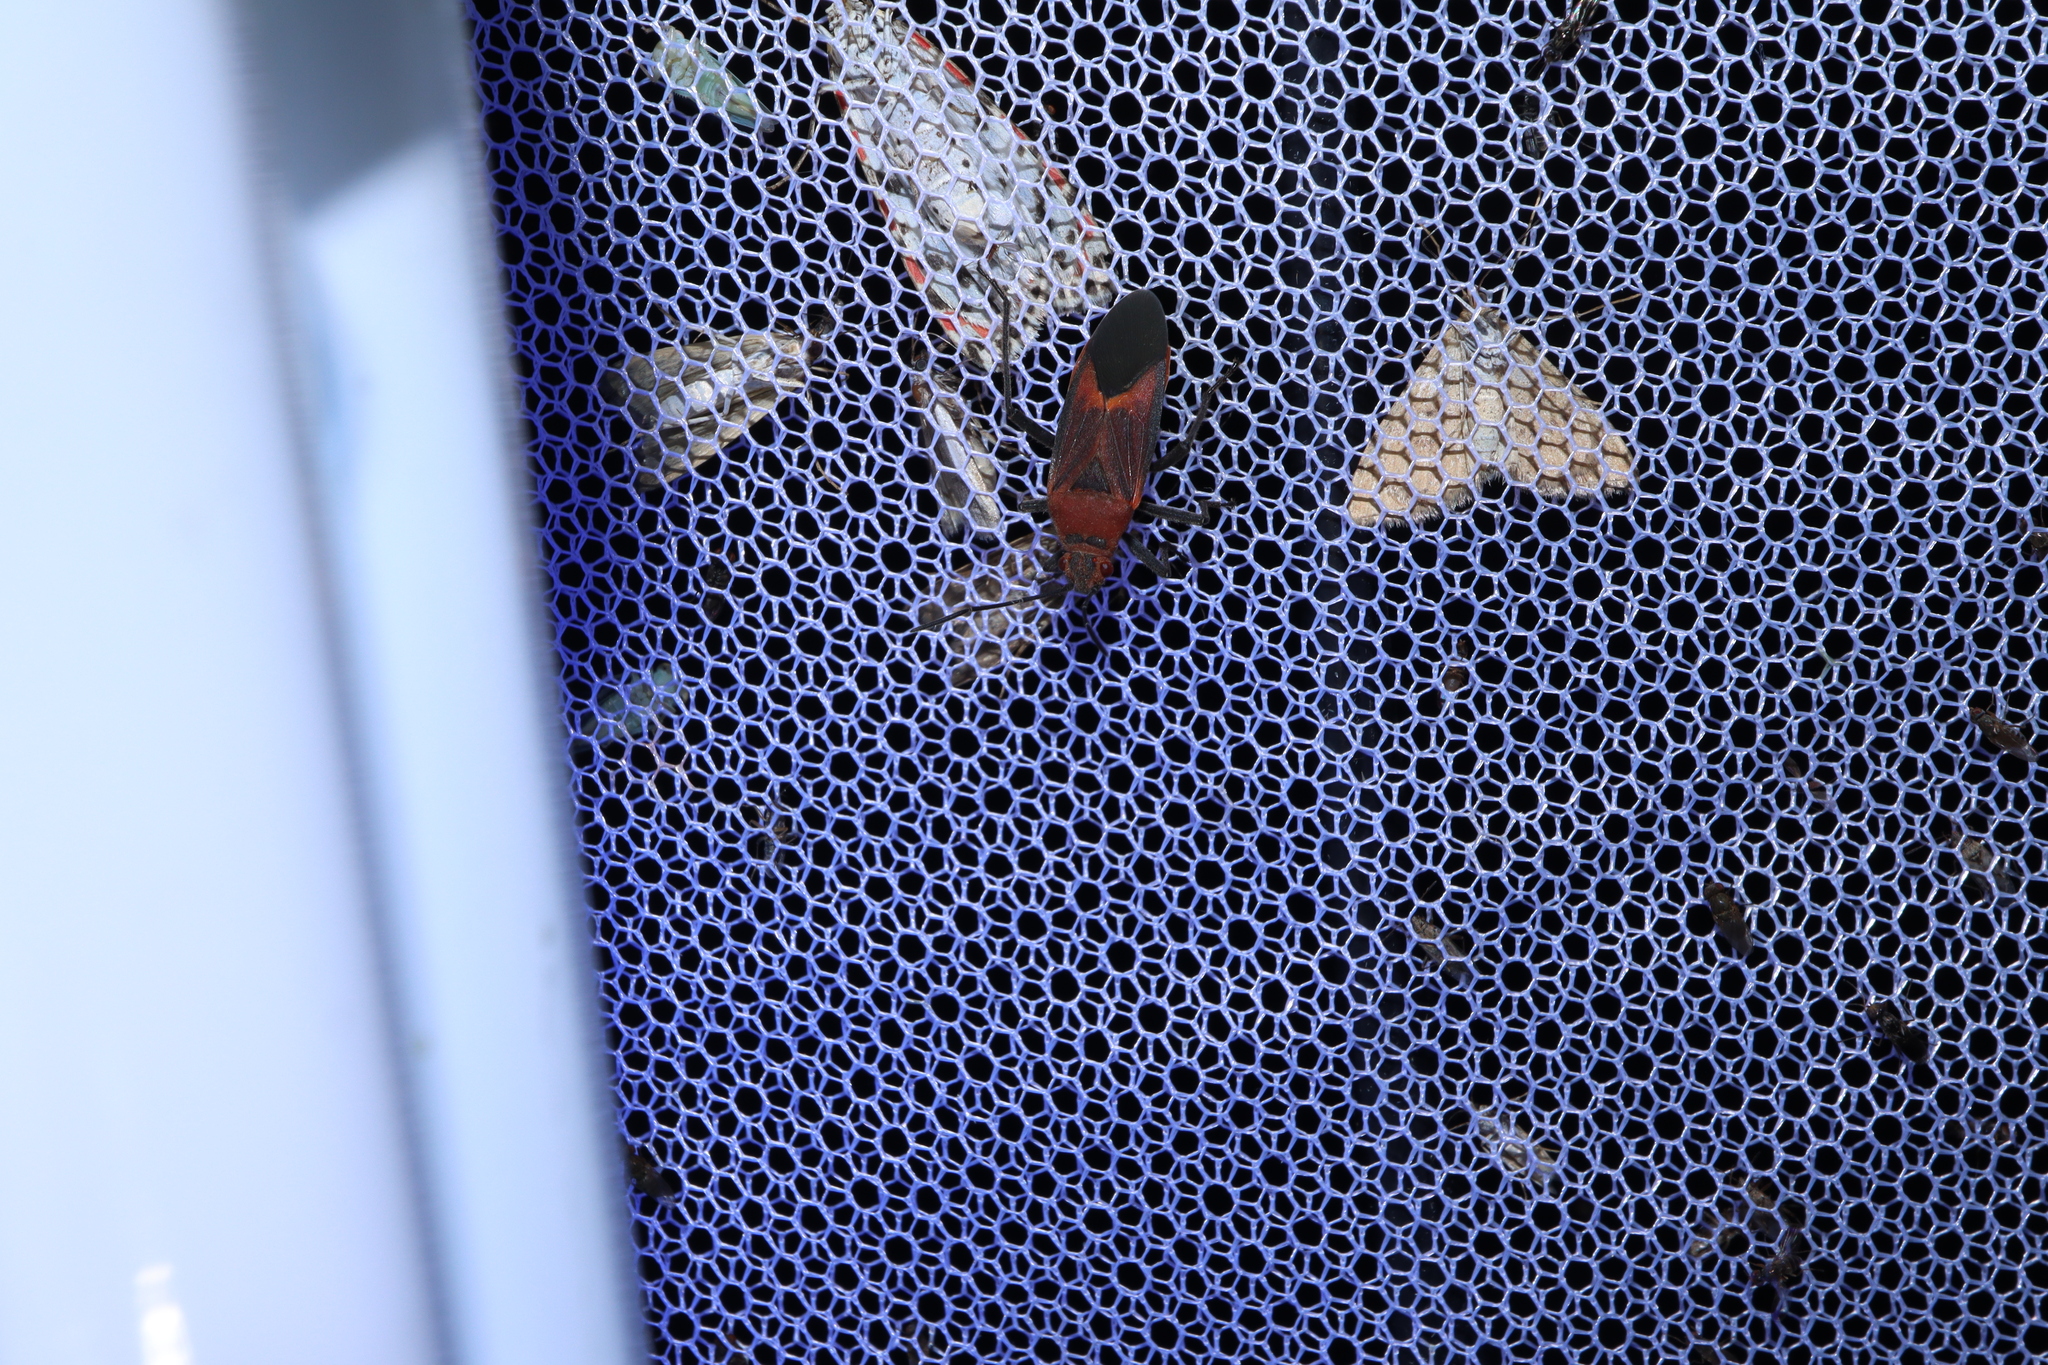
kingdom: Animalia
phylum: Arthropoda
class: Insecta
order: Hemiptera
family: Rhopalidae
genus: Leptocoris
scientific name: Leptocoris mitellatus
